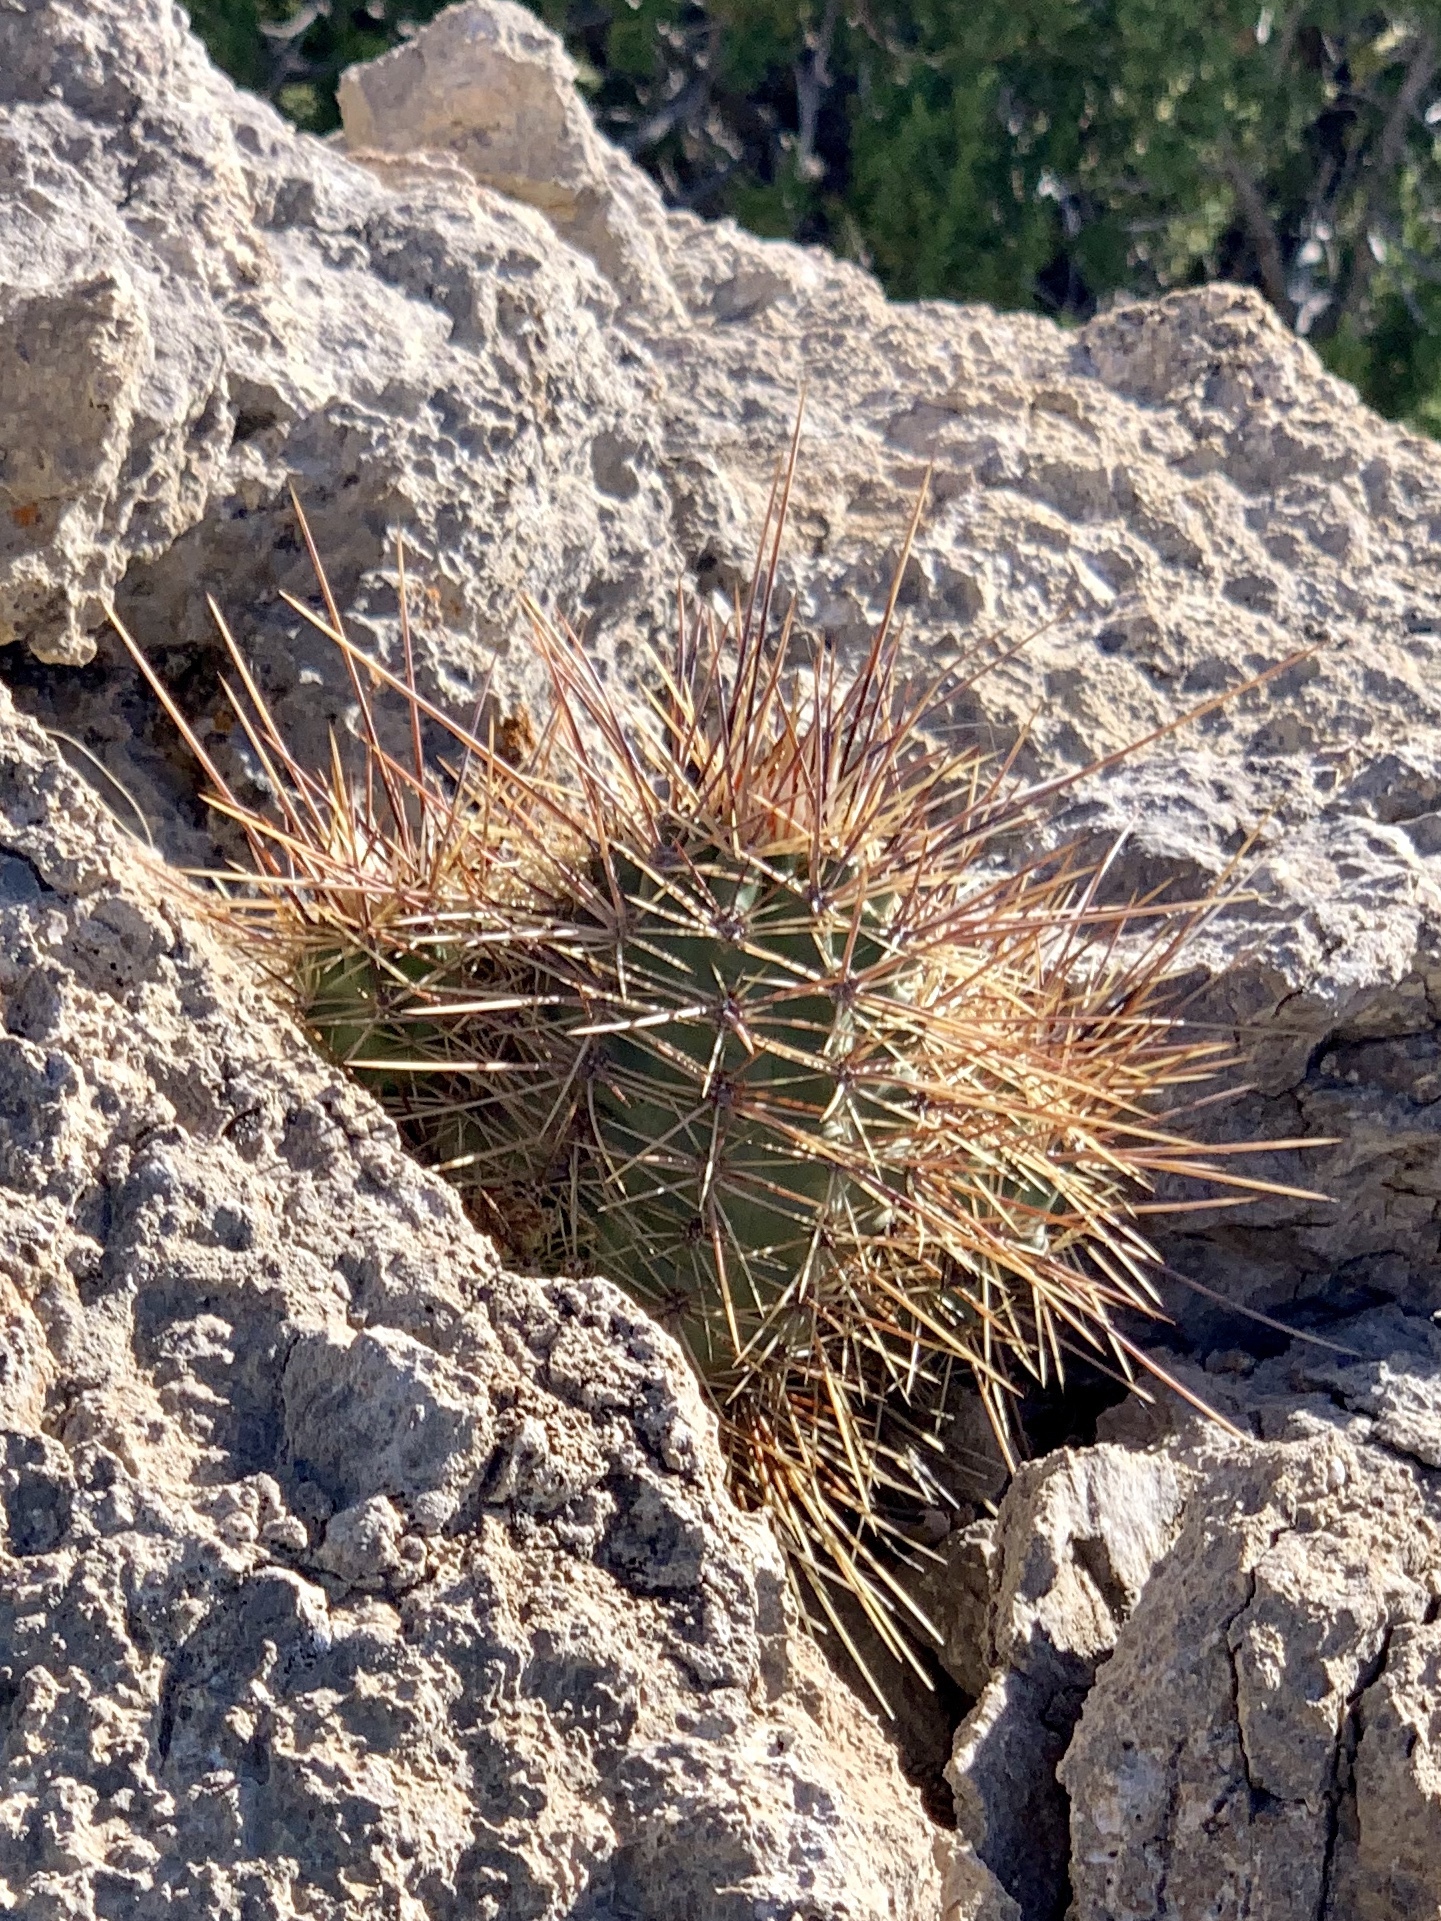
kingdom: Plantae
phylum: Tracheophyta
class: Magnoliopsida
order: Caryophyllales
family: Cactaceae
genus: Echinocereus
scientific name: Echinocereus coccineus
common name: Scarlet hedgehog cactus
